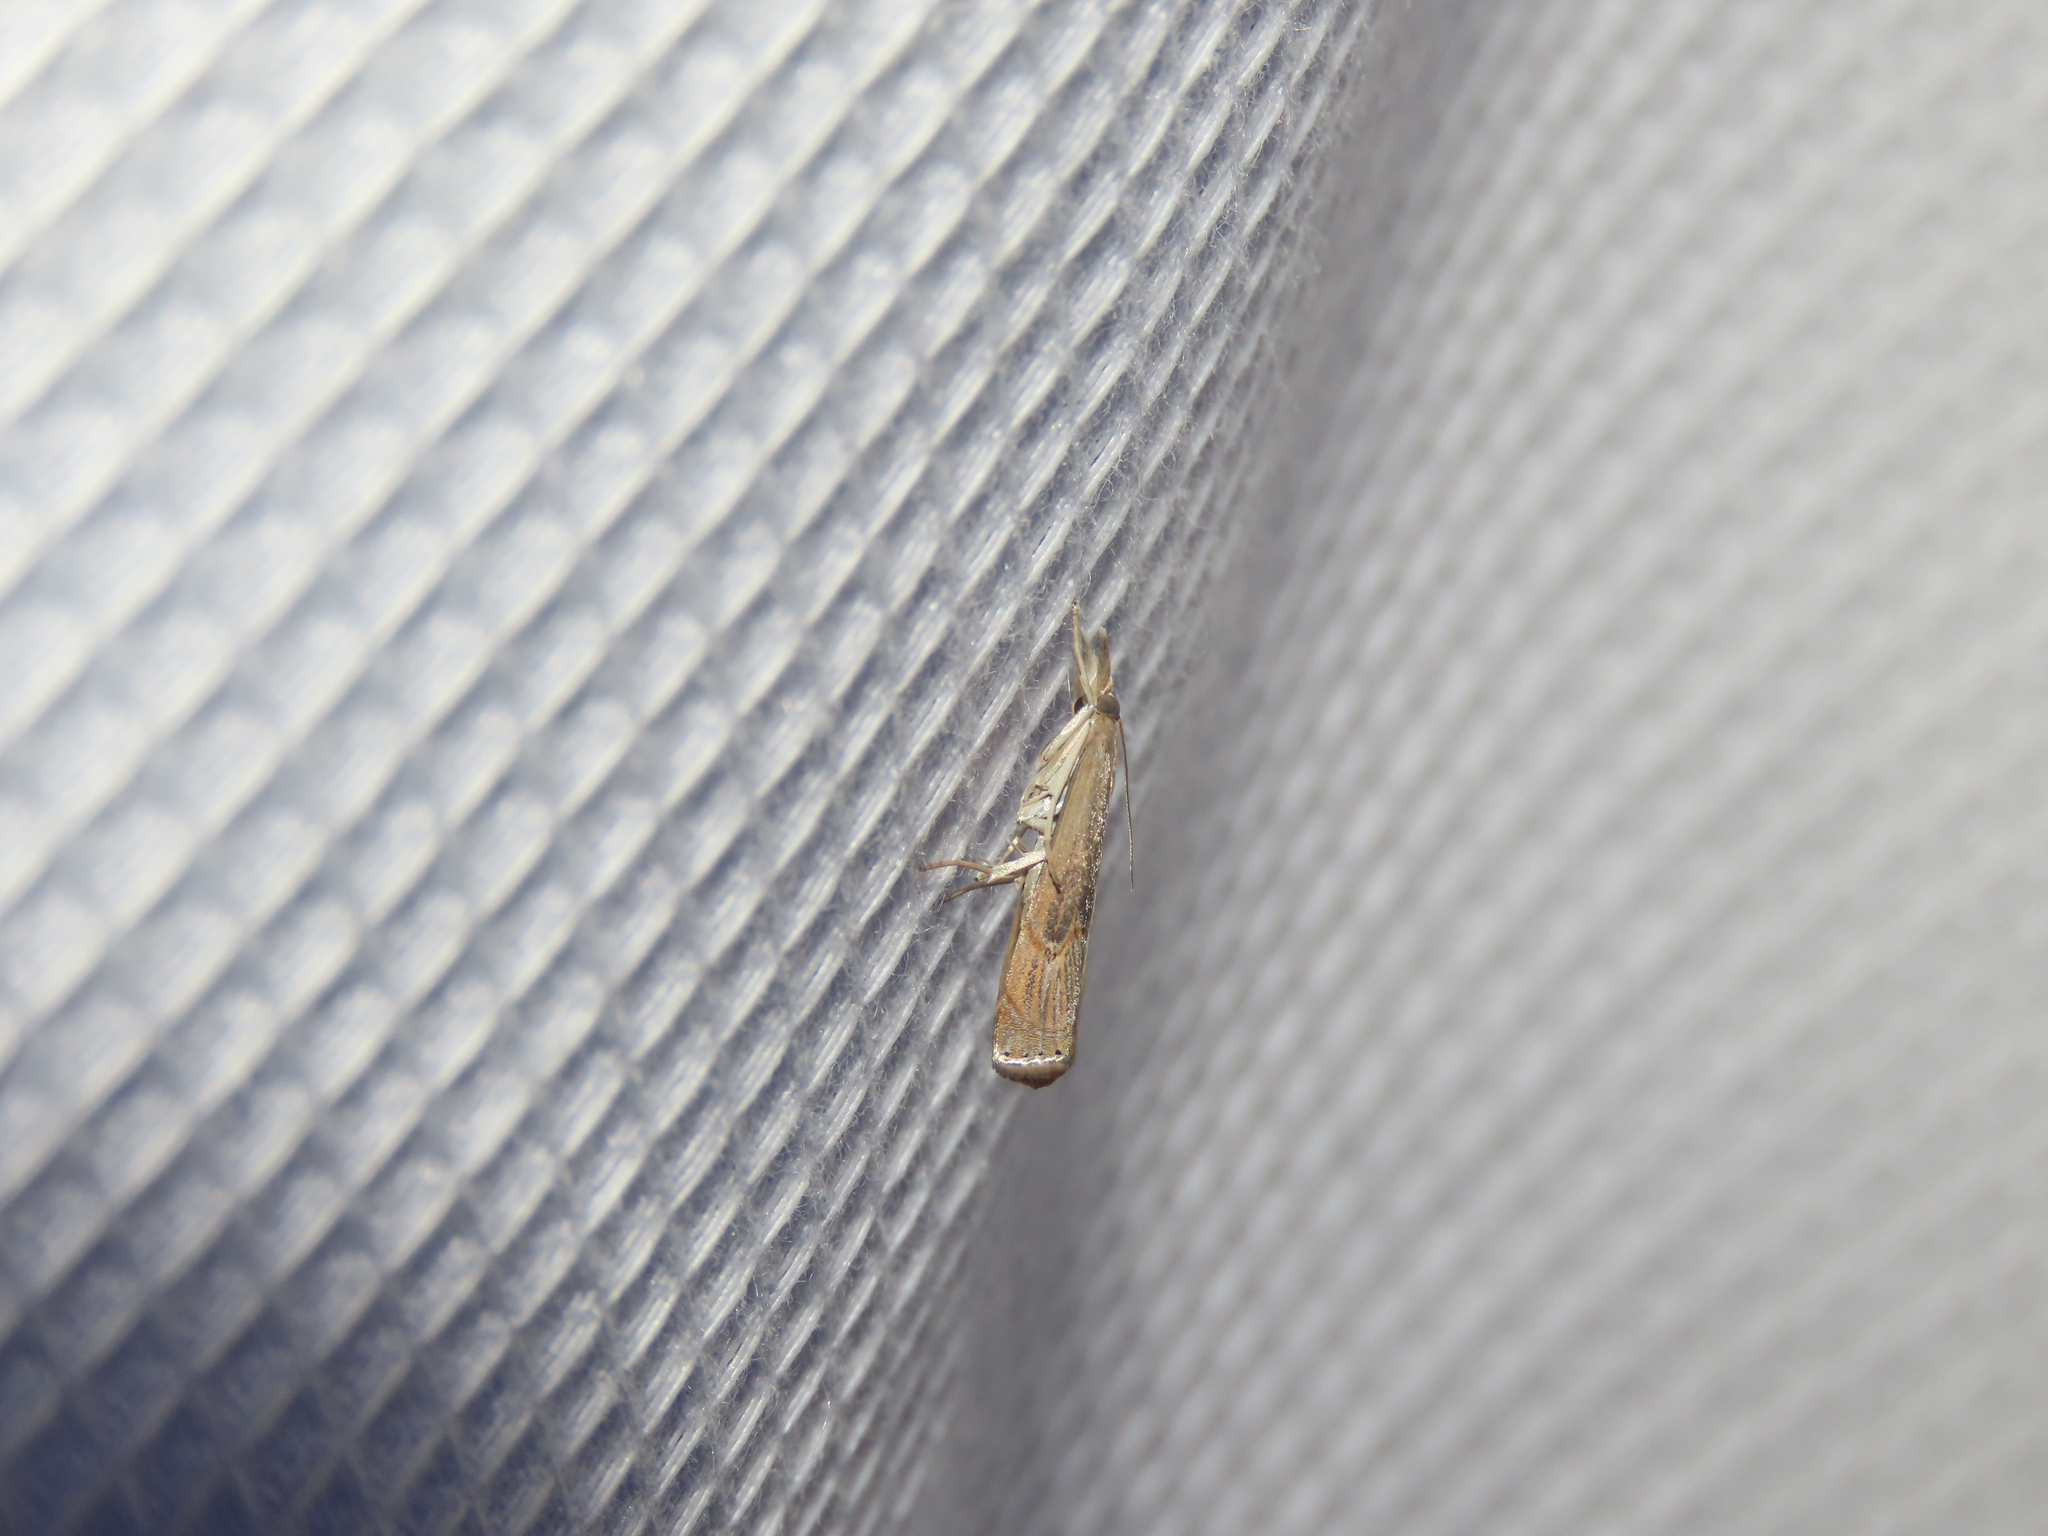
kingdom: Animalia
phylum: Arthropoda
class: Insecta
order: Lepidoptera
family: Crambidae
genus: Parapediasia
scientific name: Parapediasia teterellus
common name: Bluegrass webworm moth
